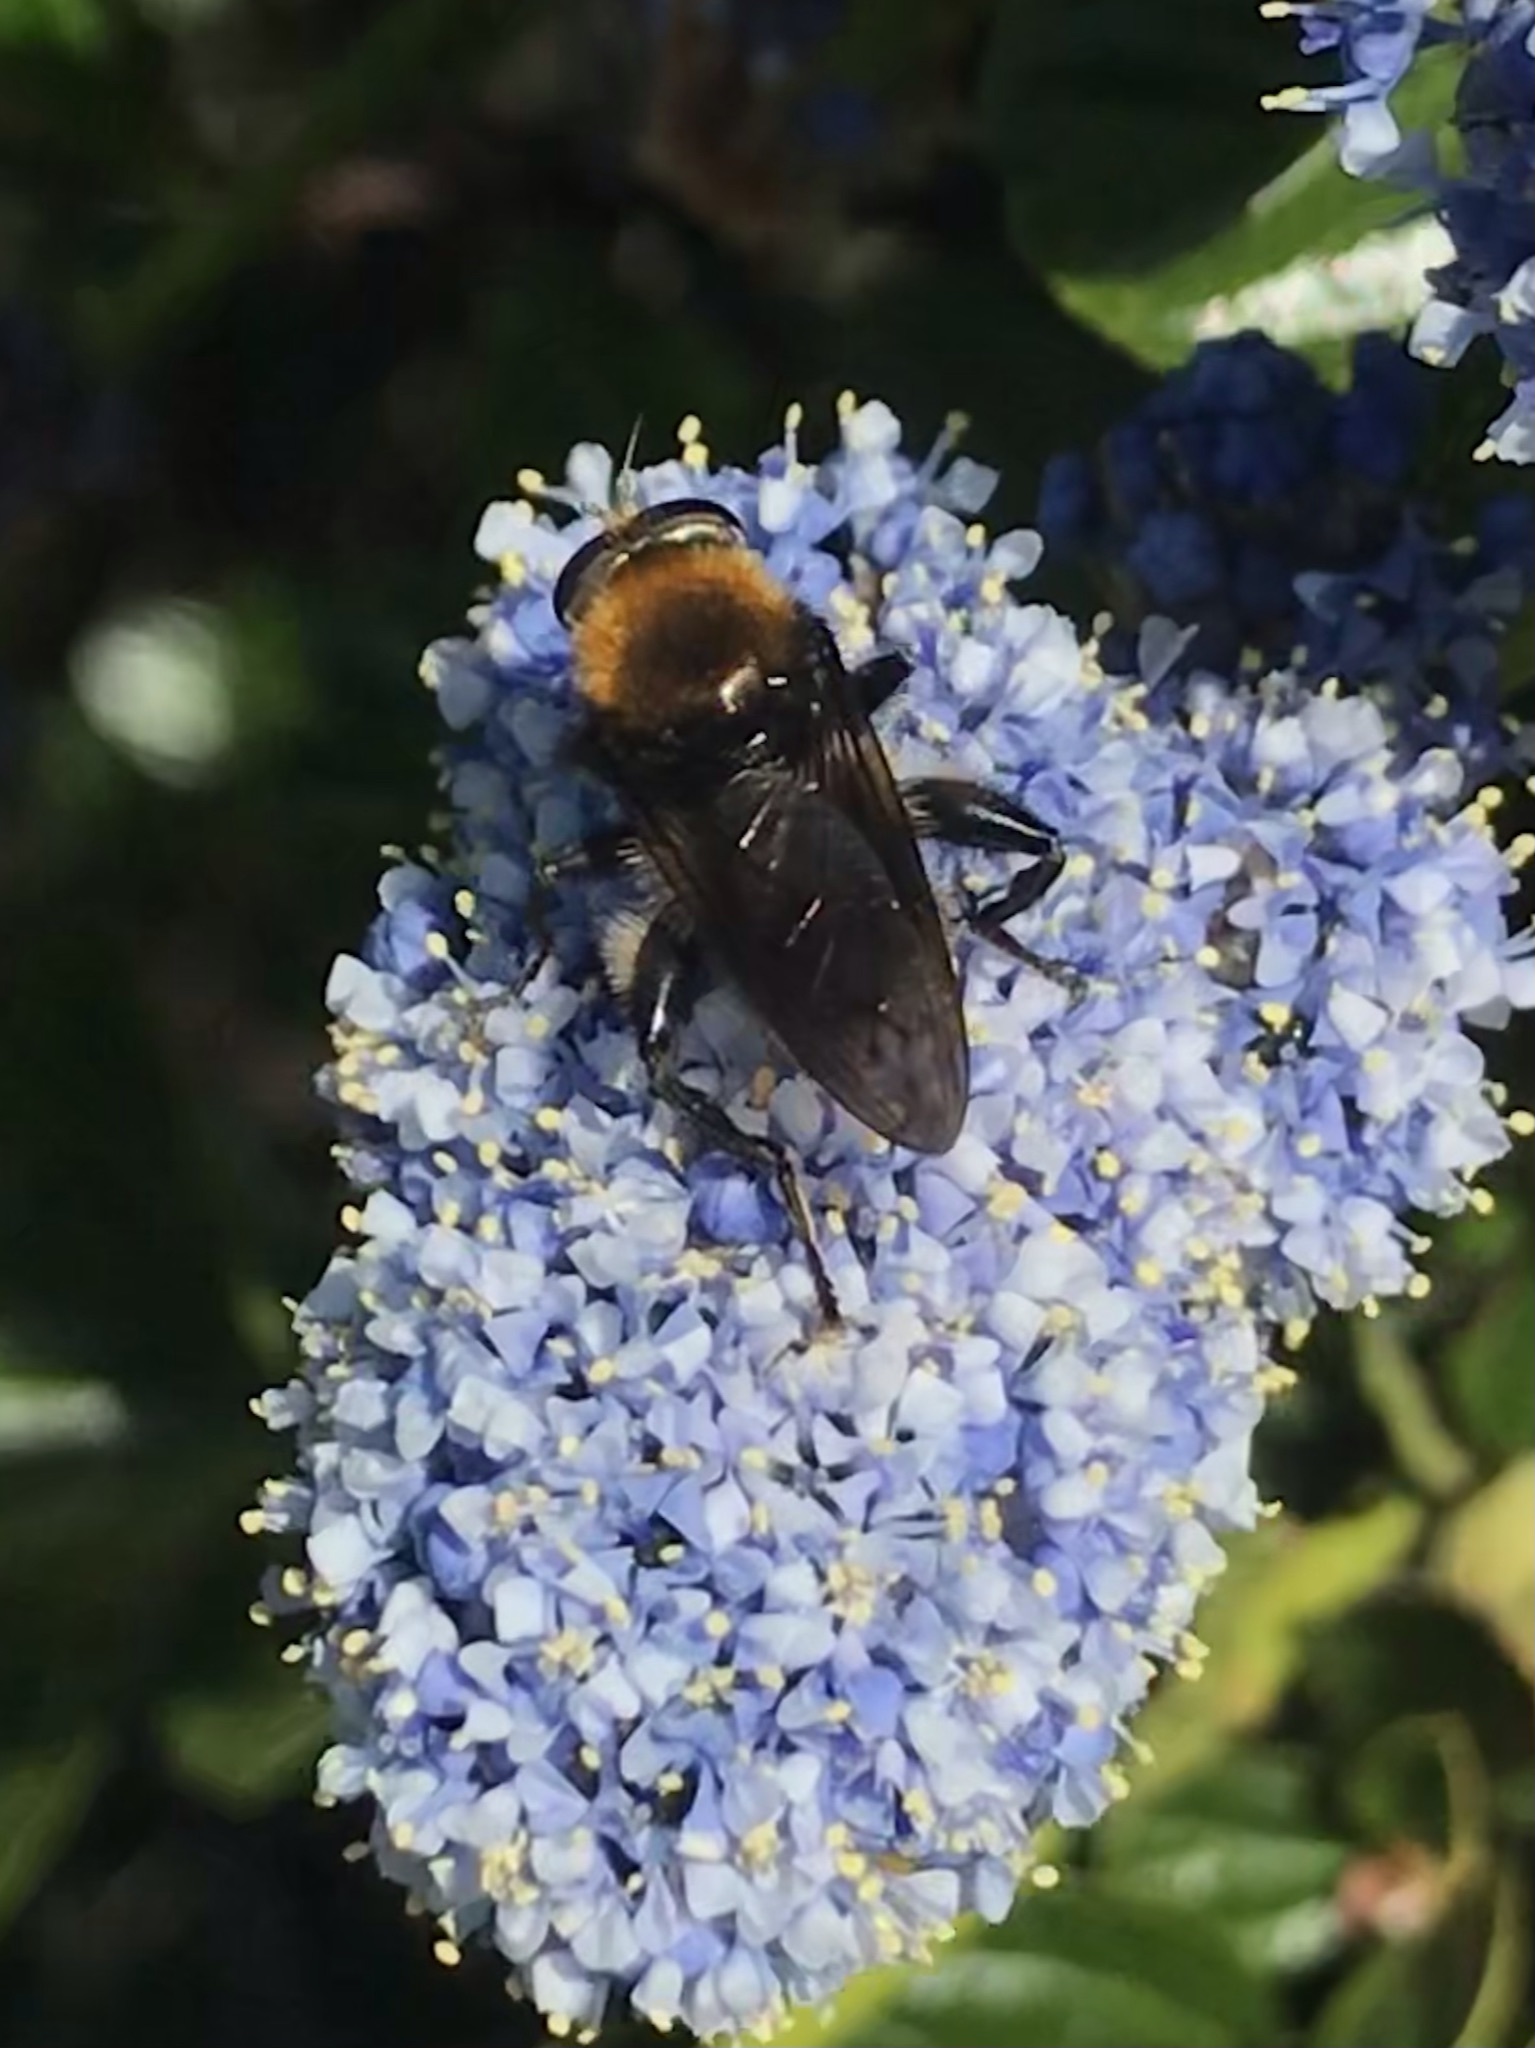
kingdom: Animalia
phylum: Arthropoda
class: Insecta
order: Diptera
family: Syrphidae
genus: Brachypalpus
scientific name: Brachypalpus alopex
